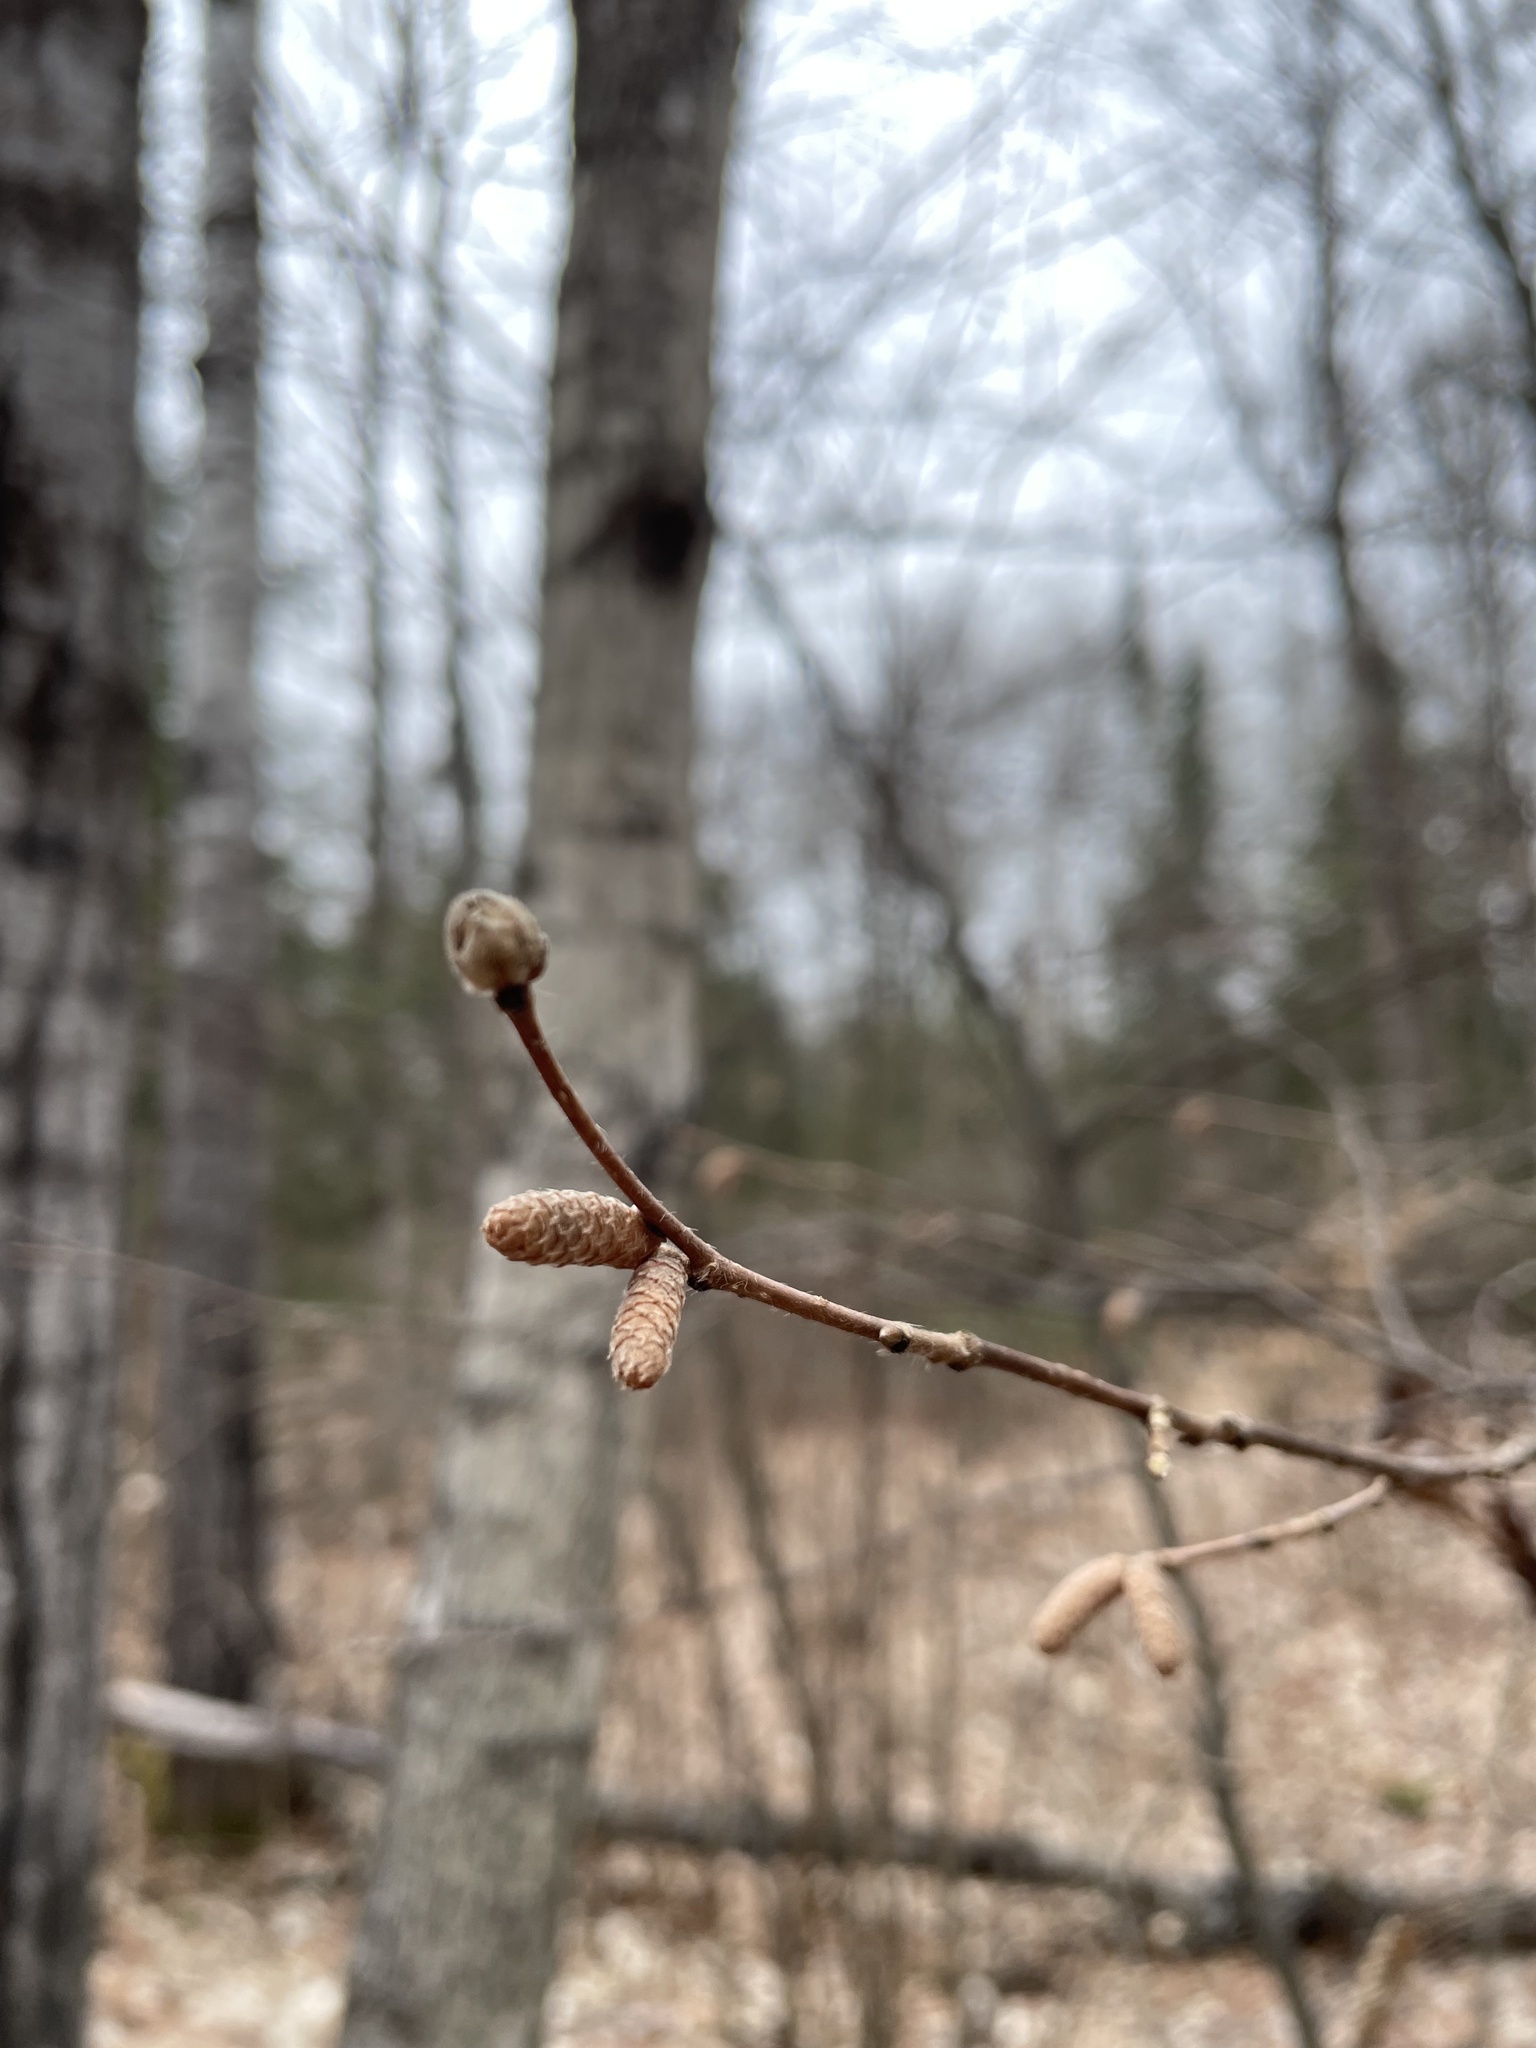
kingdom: Plantae
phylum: Tracheophyta
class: Magnoliopsida
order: Fagales
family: Betulaceae
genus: Corylus
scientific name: Corylus cornuta
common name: Beaked hazel
